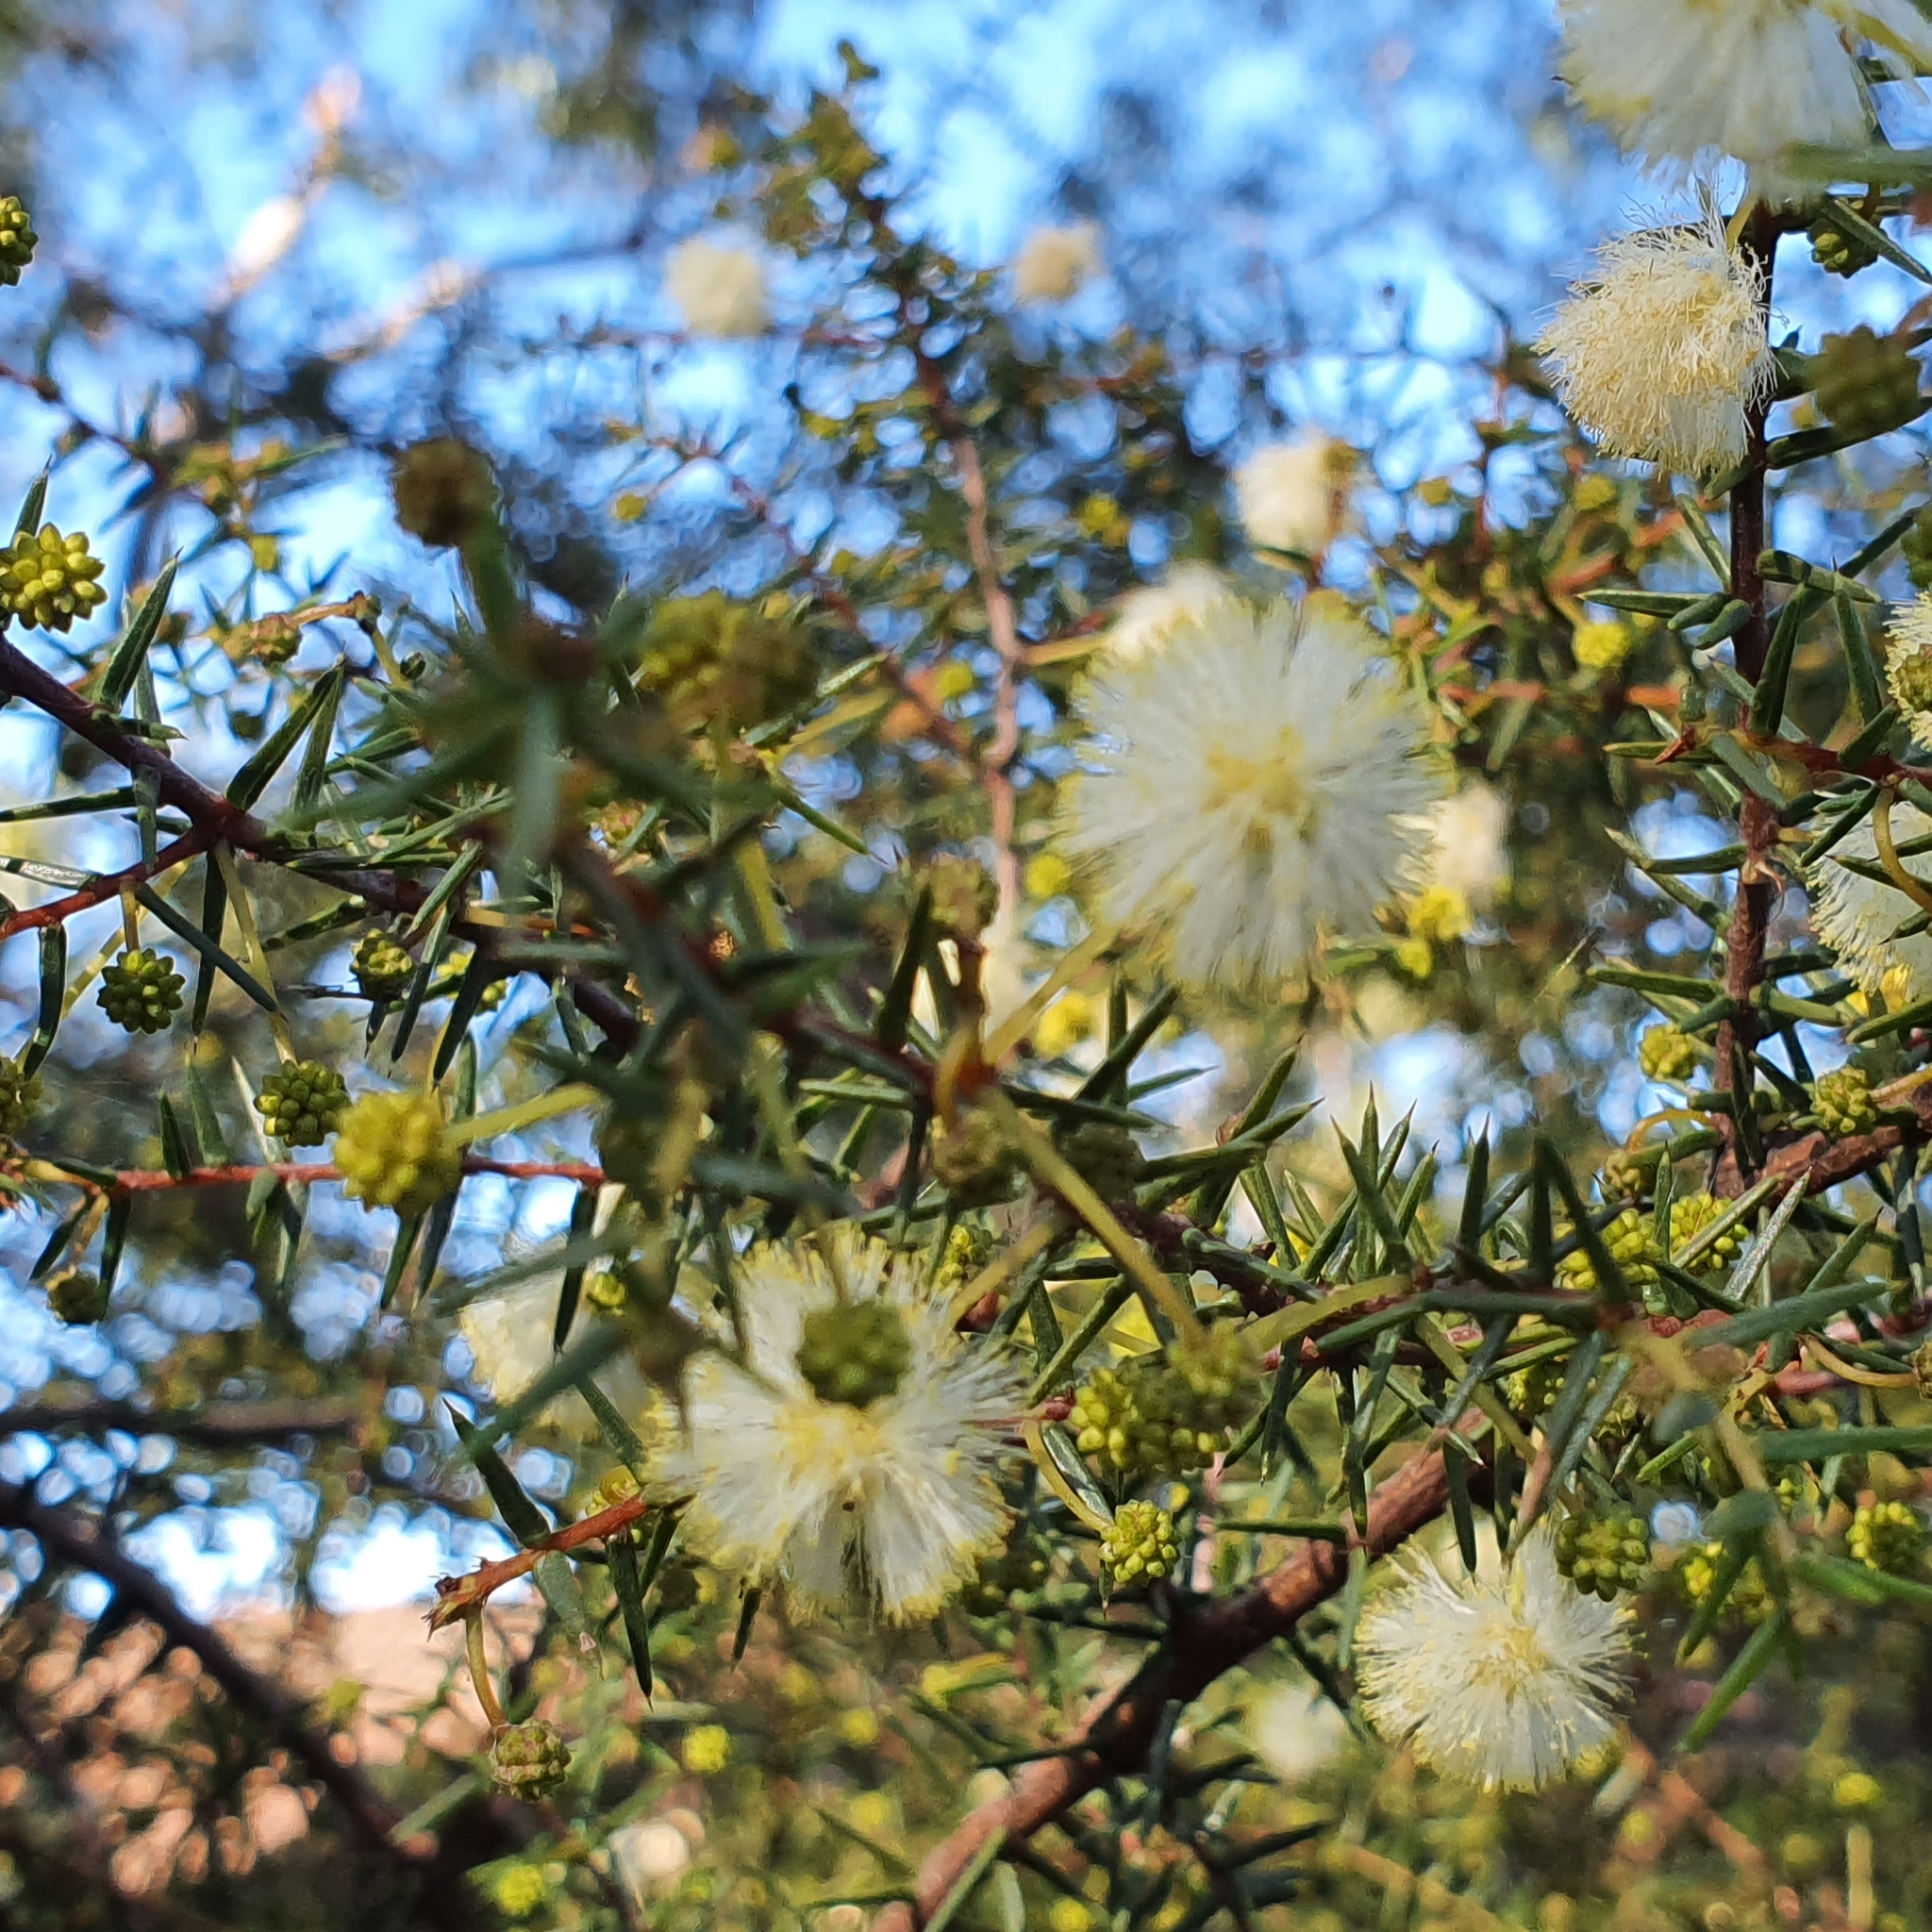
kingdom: Plantae
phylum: Tracheophyta
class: Magnoliopsida
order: Fabales
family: Fabaceae
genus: Acacia
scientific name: Acacia ulicifolia
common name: Juniper wattle
